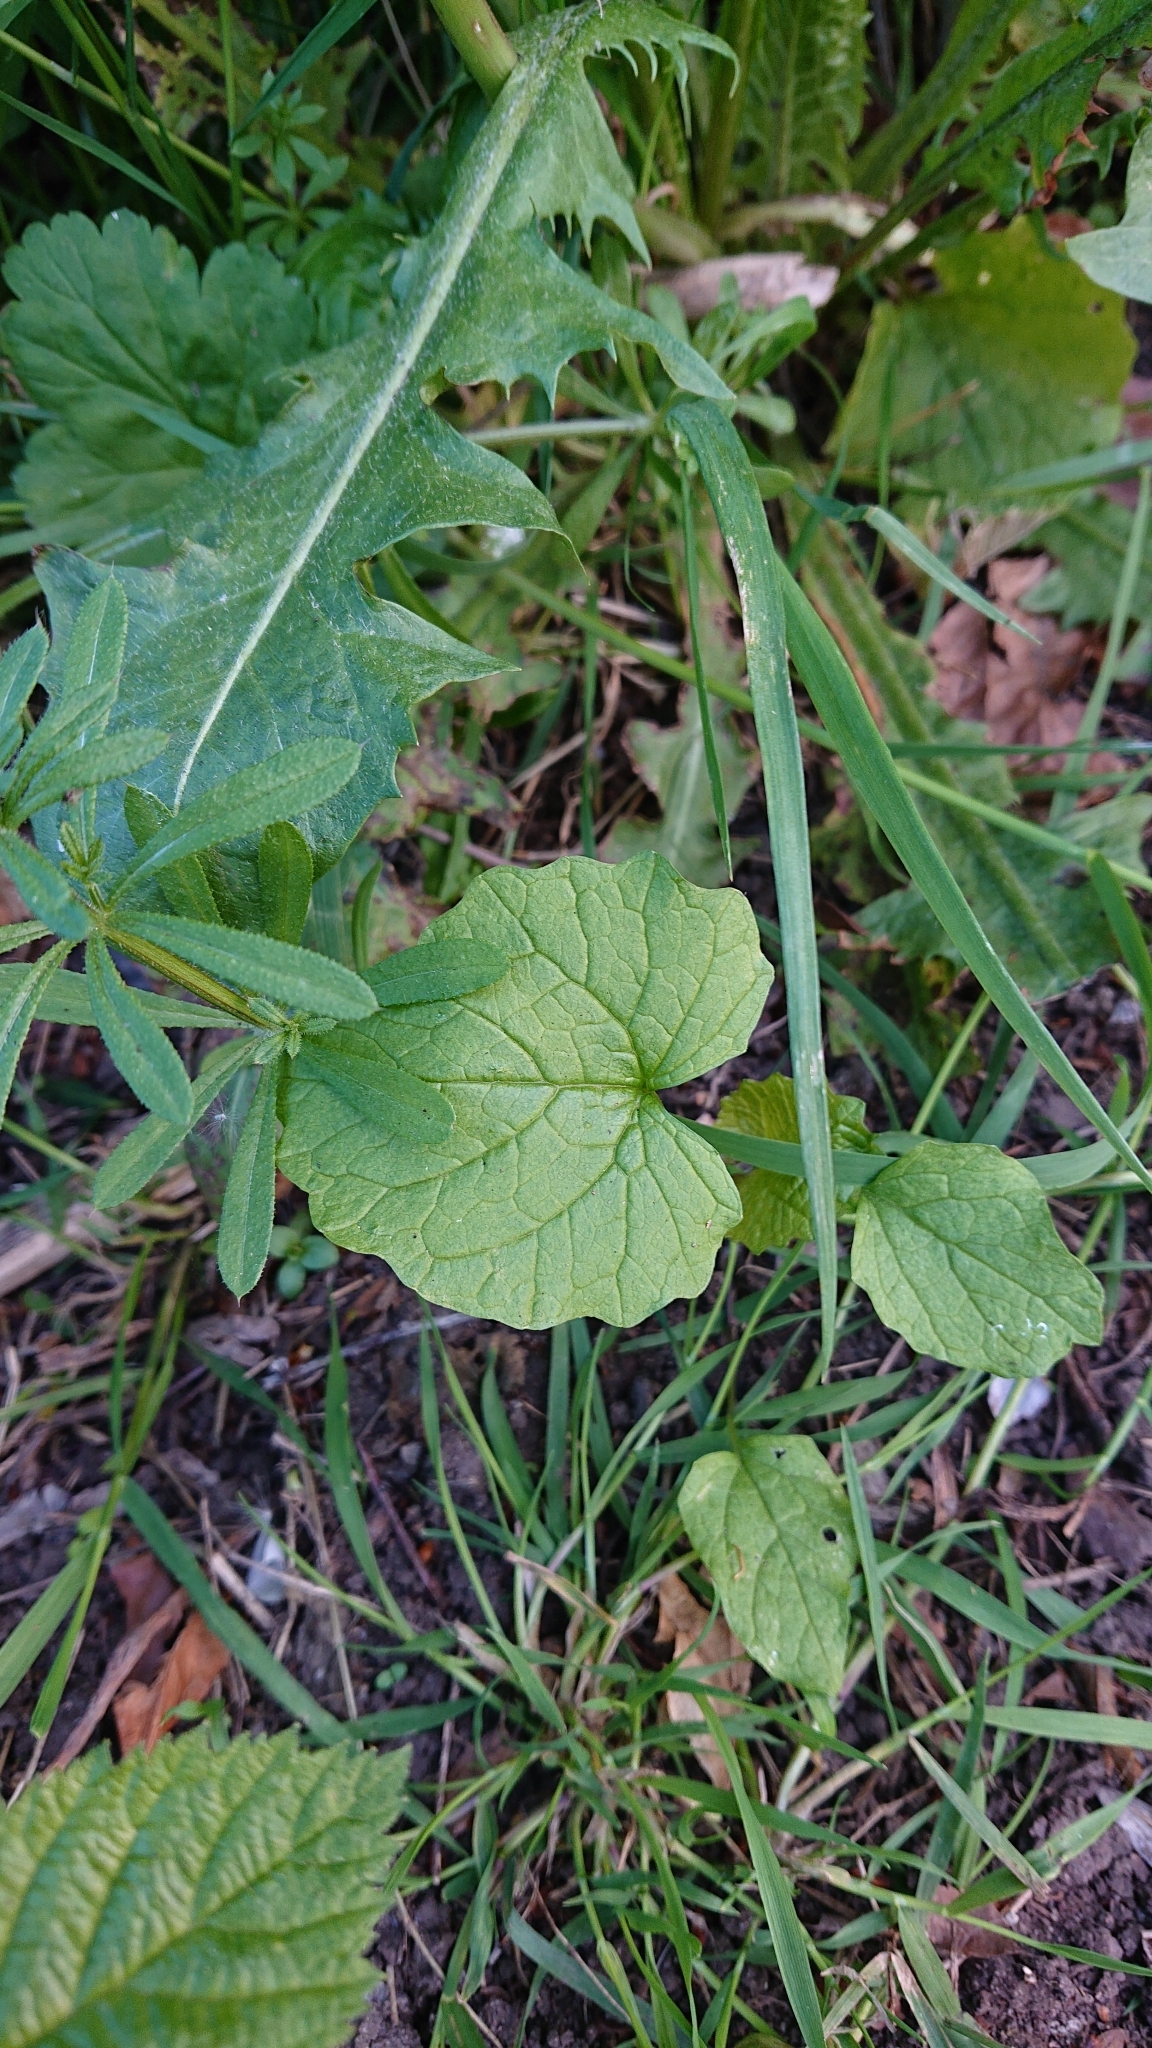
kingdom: Plantae
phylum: Tracheophyta
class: Magnoliopsida
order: Brassicales
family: Brassicaceae
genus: Alliaria
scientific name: Alliaria petiolata
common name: Garlic mustard
